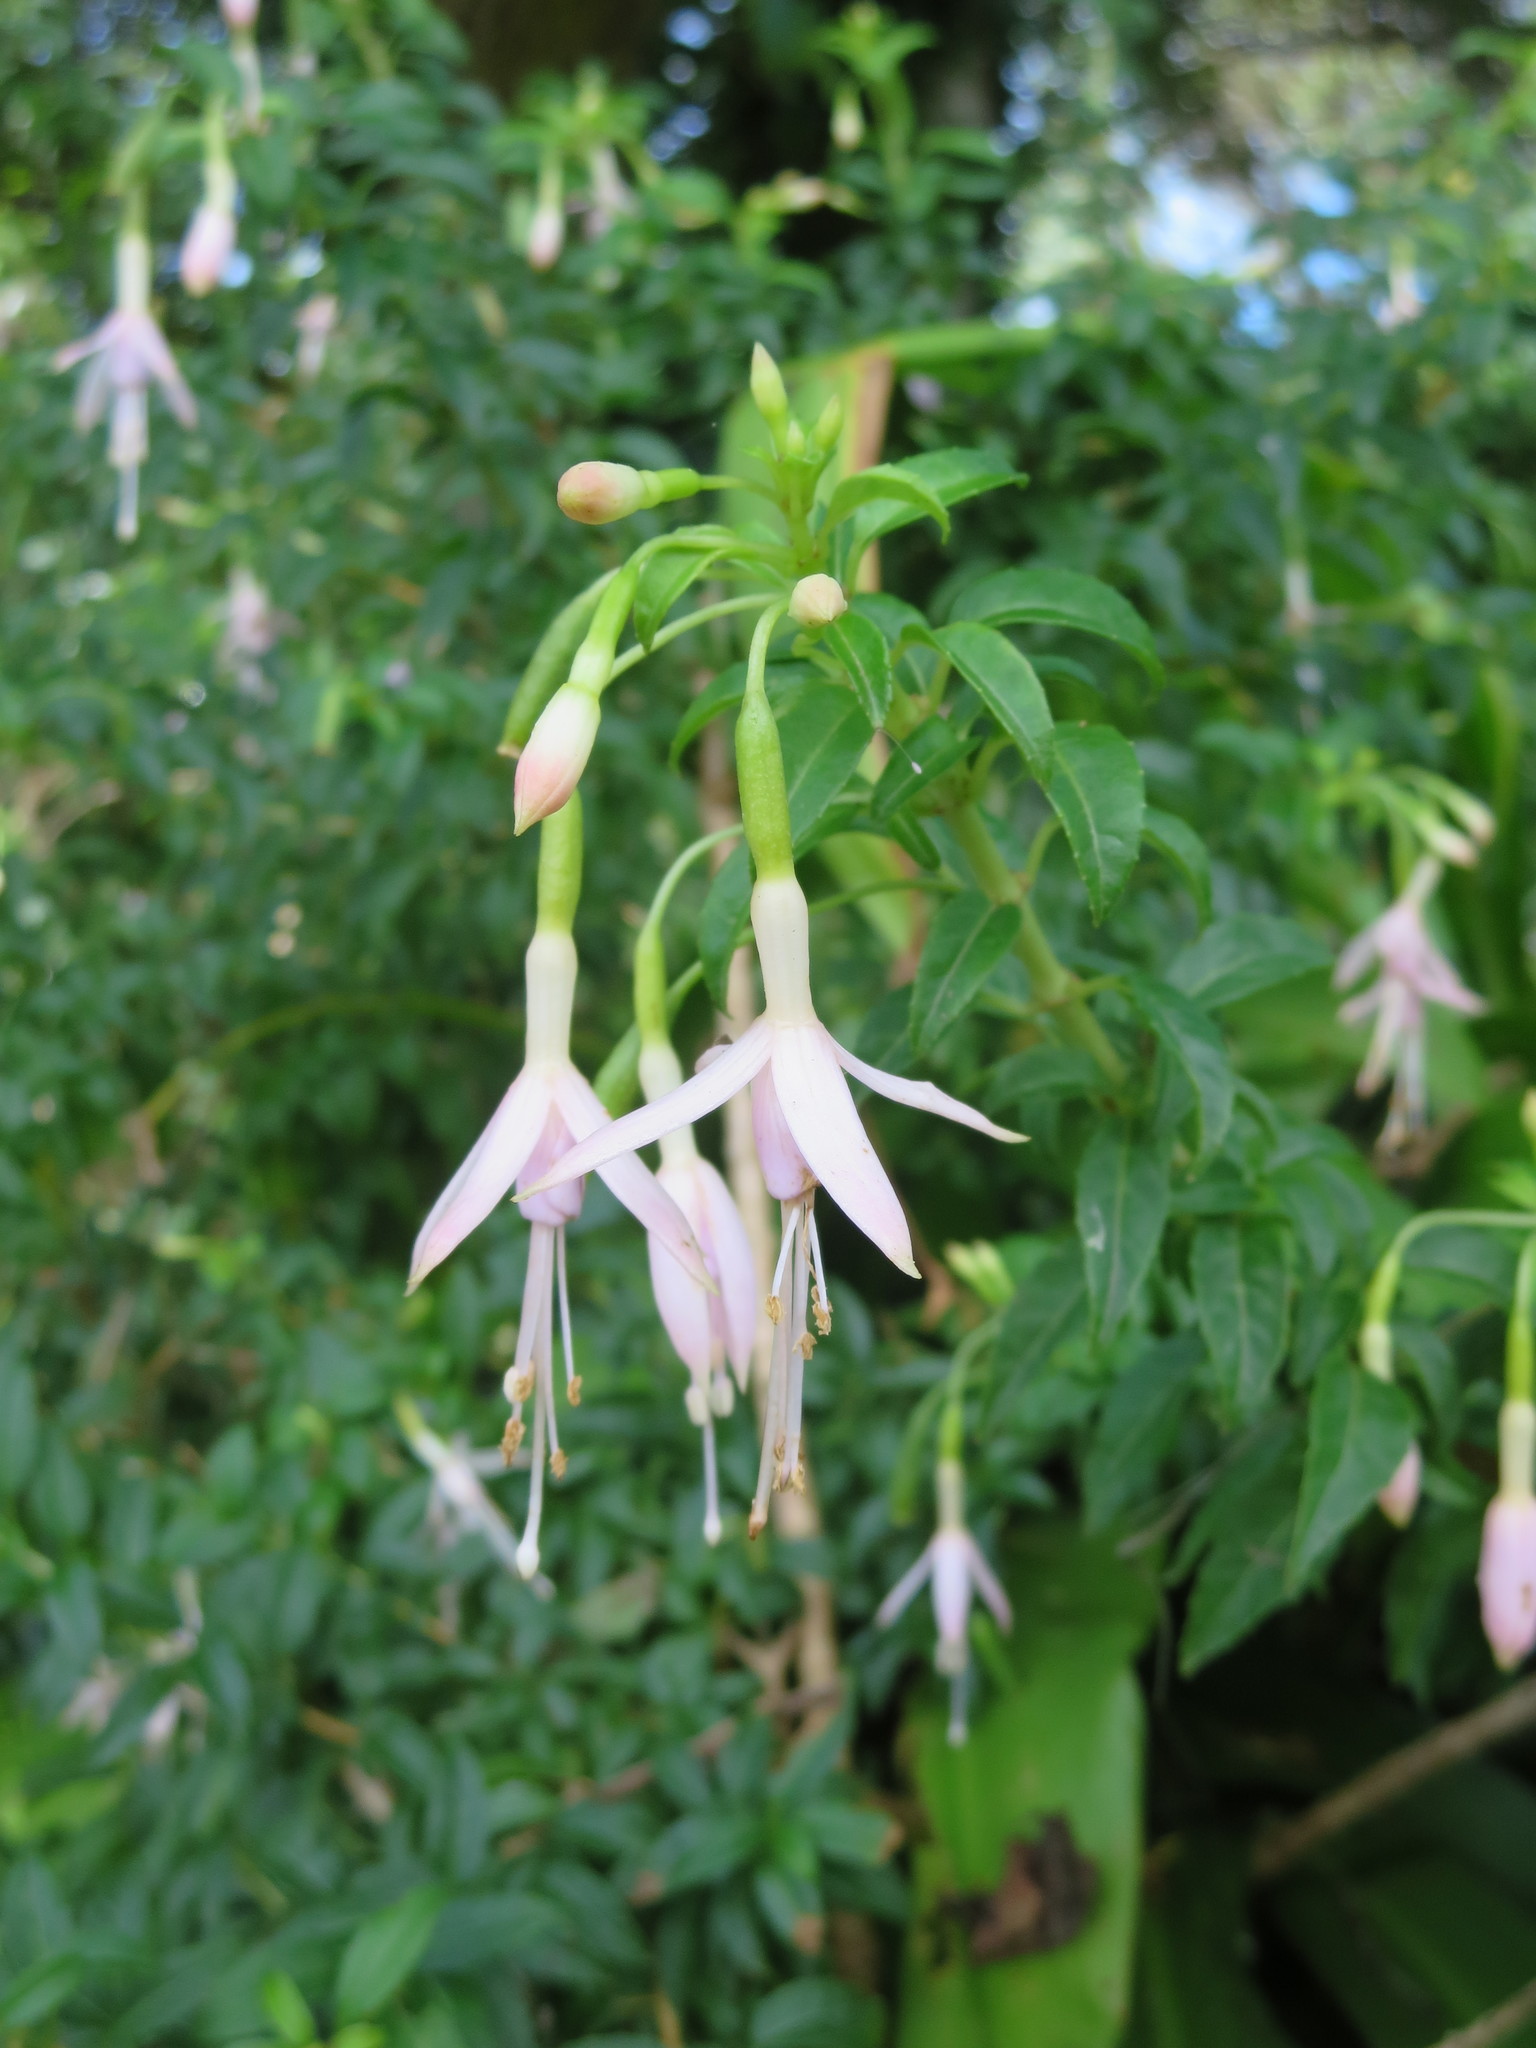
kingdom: Plantae
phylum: Tracheophyta
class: Magnoliopsida
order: Myrtales
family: Onagraceae
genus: Fuchsia
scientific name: Fuchsia magellanica
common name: Hardy fuchsia
